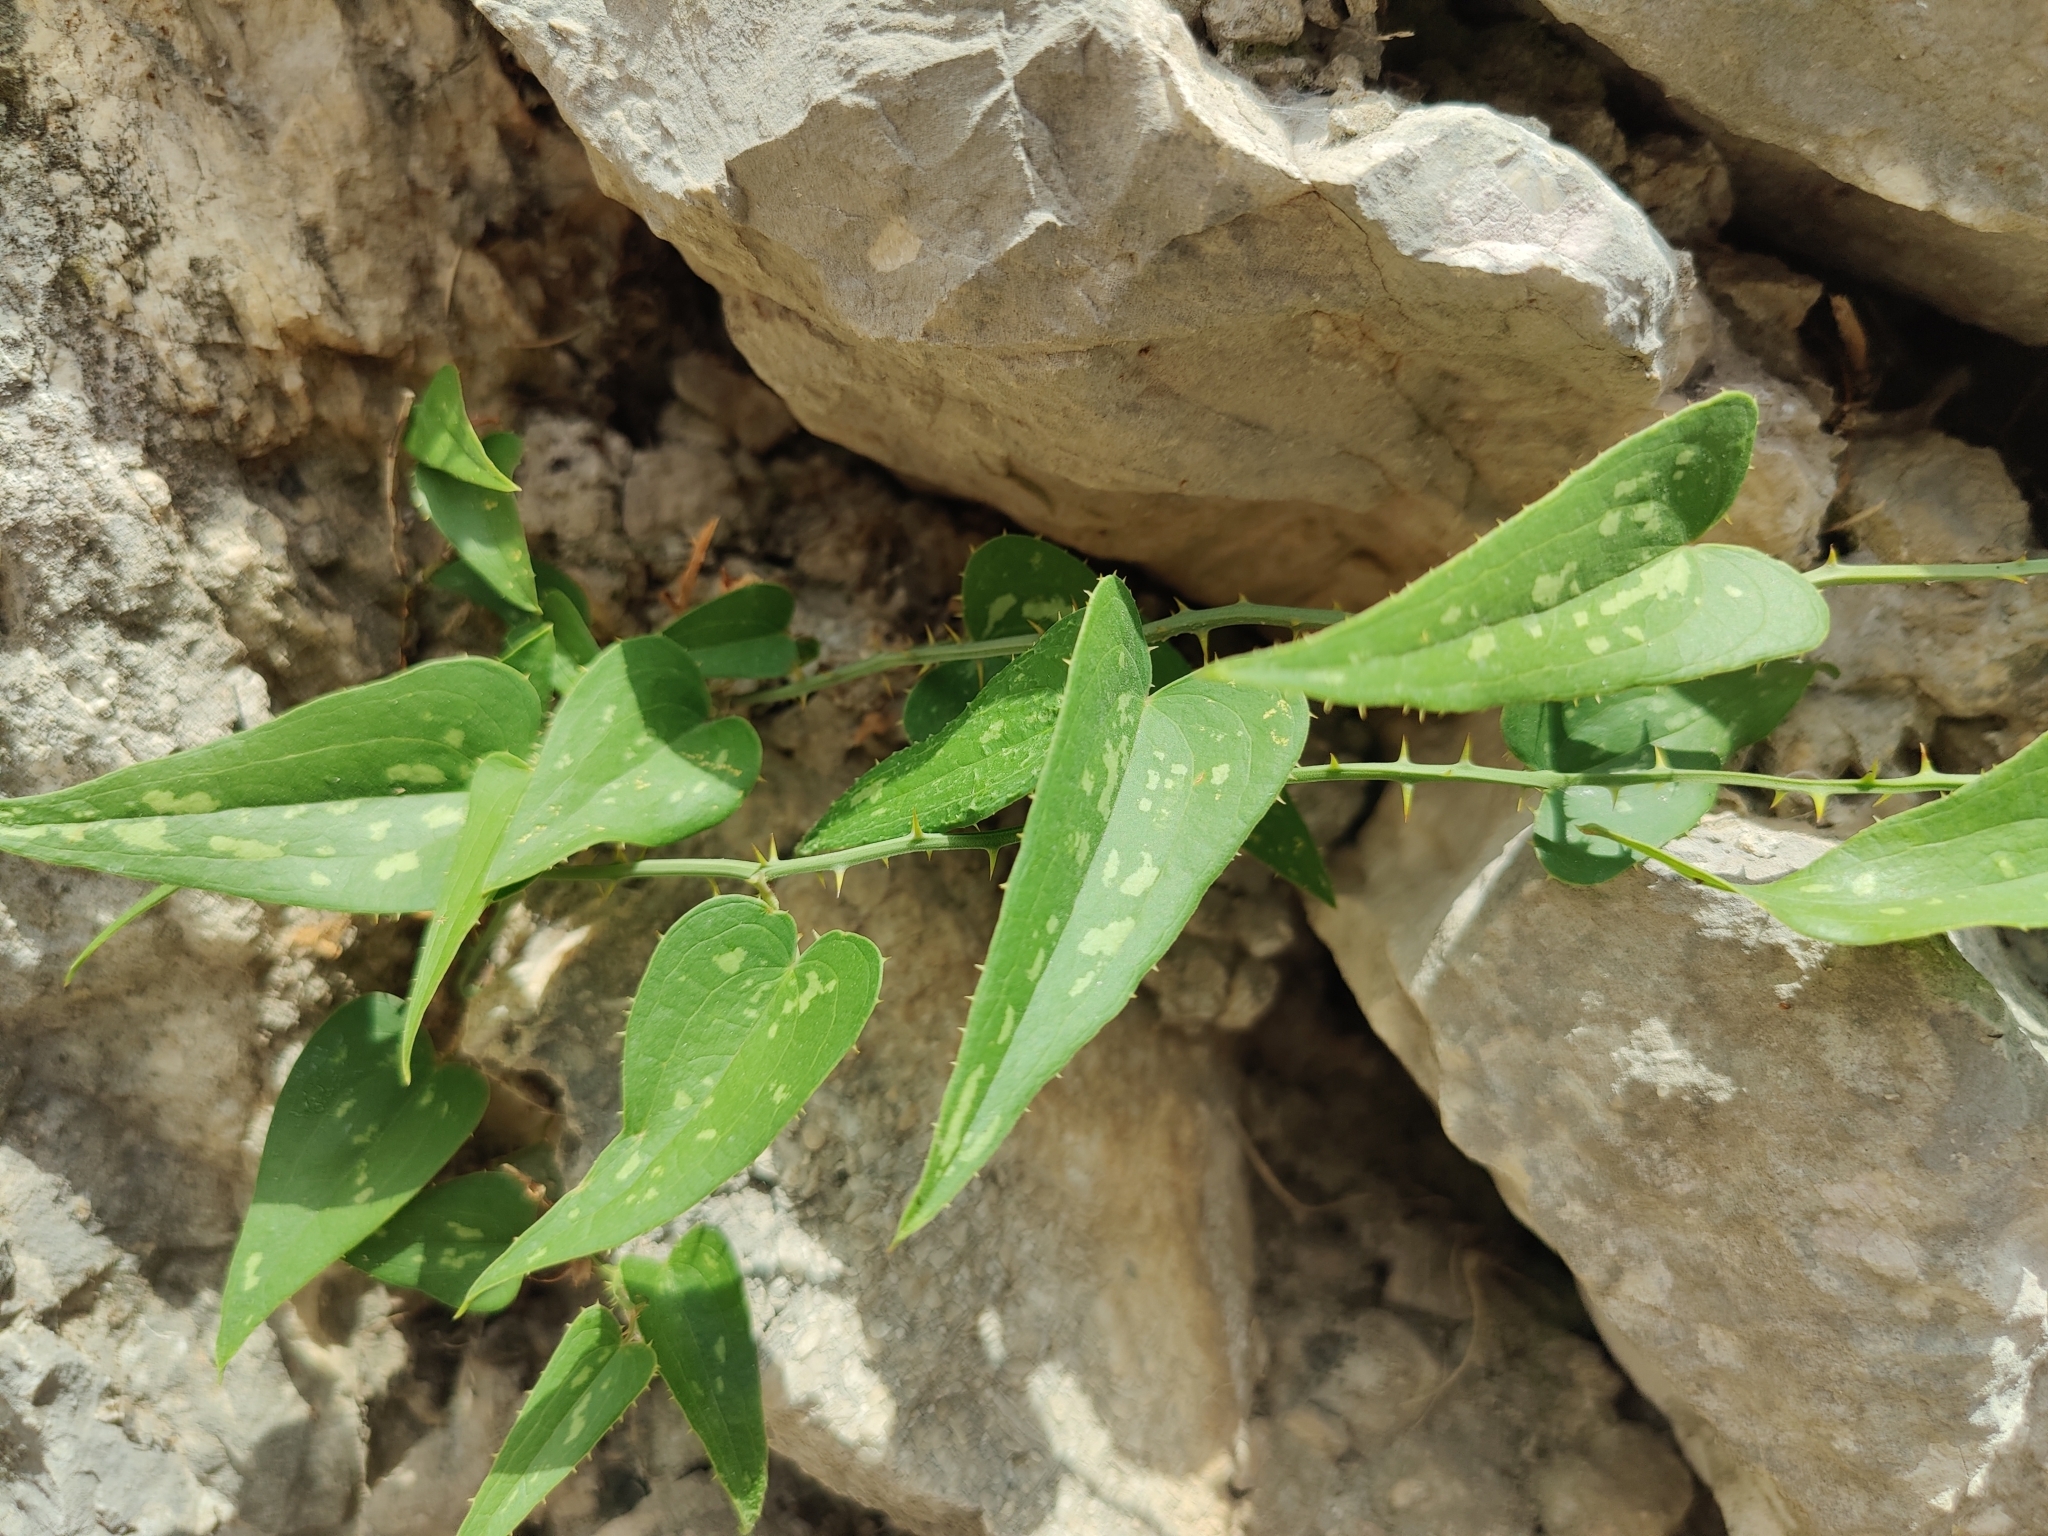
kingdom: Plantae
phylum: Tracheophyta
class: Liliopsida
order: Liliales
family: Smilacaceae
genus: Smilax
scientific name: Smilax aspera
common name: Common smilax
